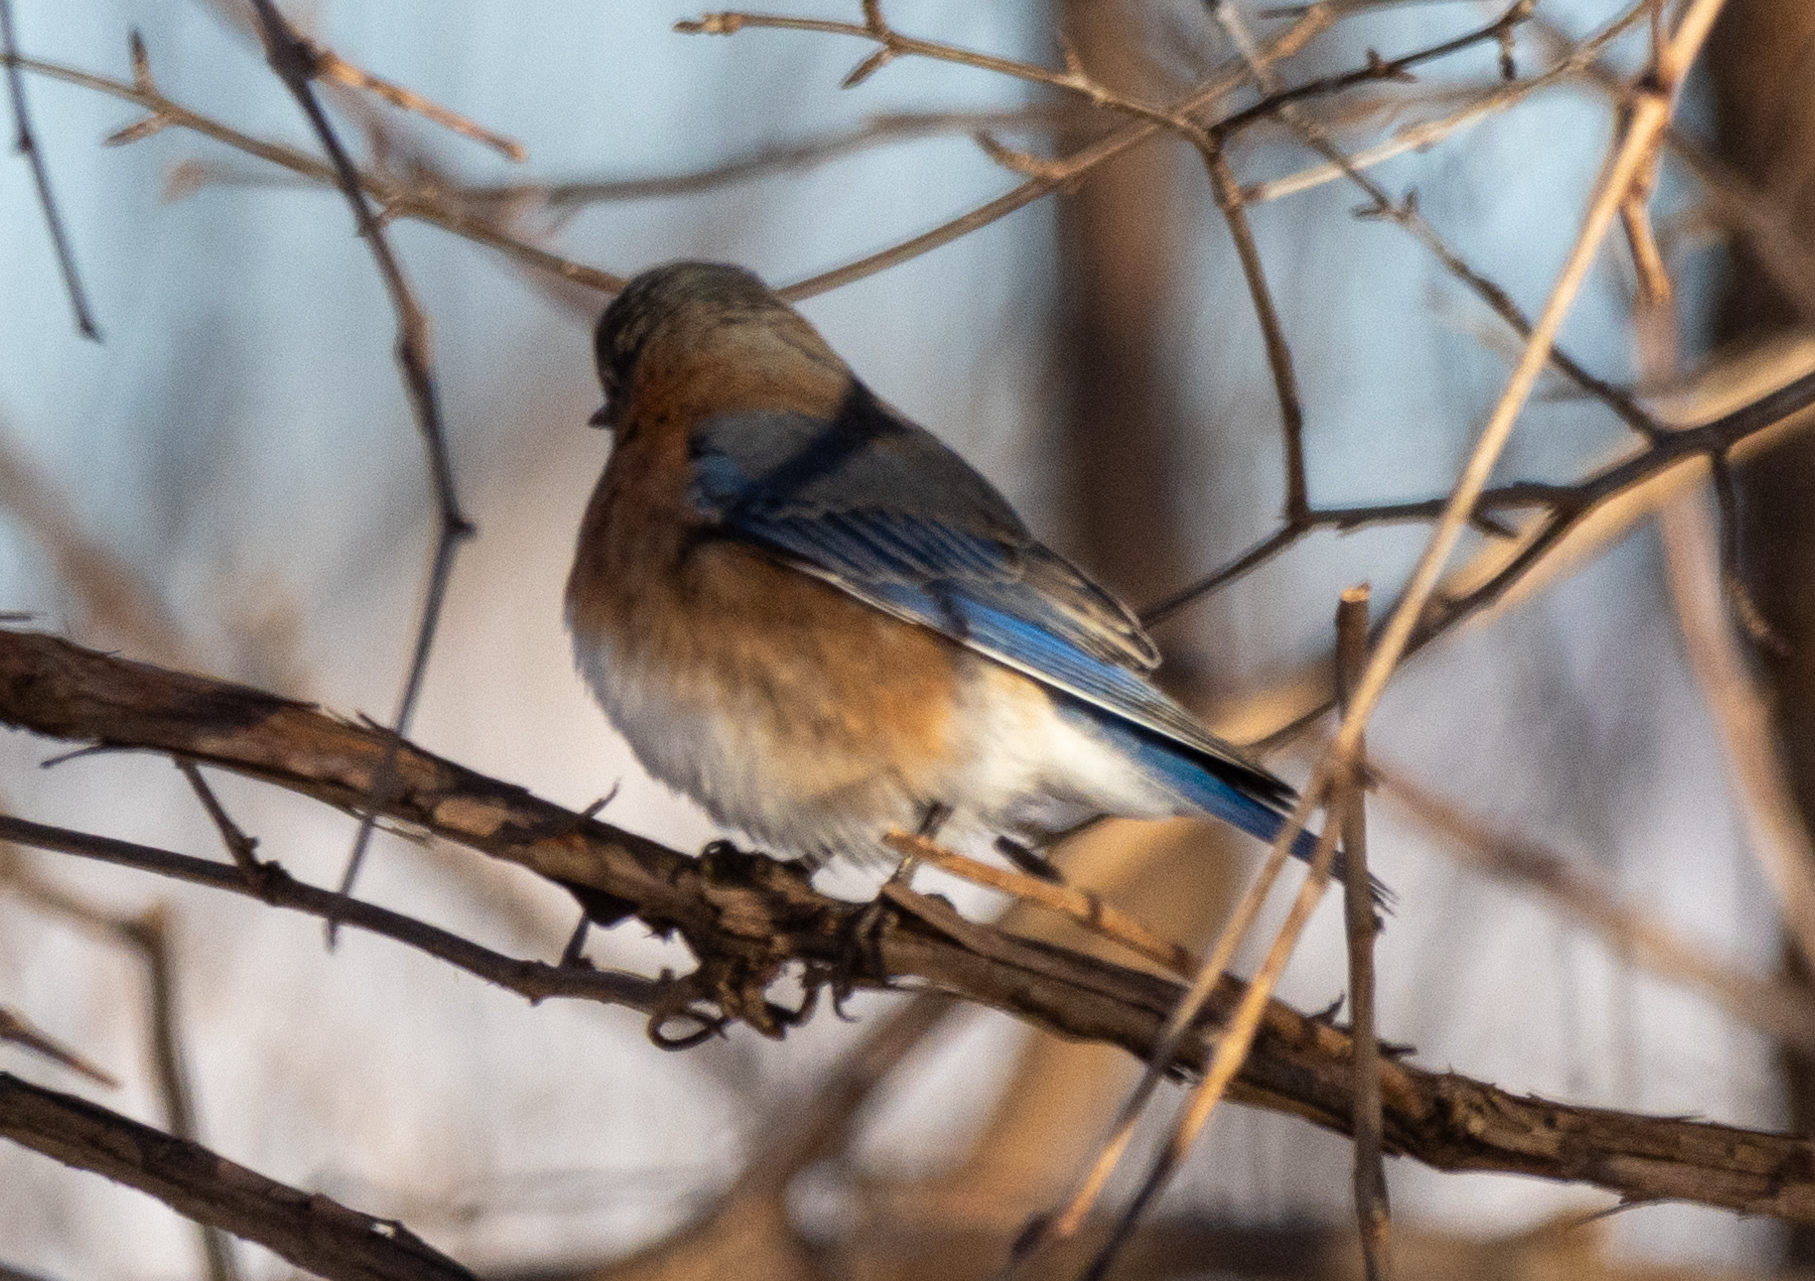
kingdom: Animalia
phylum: Chordata
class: Aves
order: Passeriformes
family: Turdidae
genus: Sialia
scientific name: Sialia sialis
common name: Eastern bluebird
